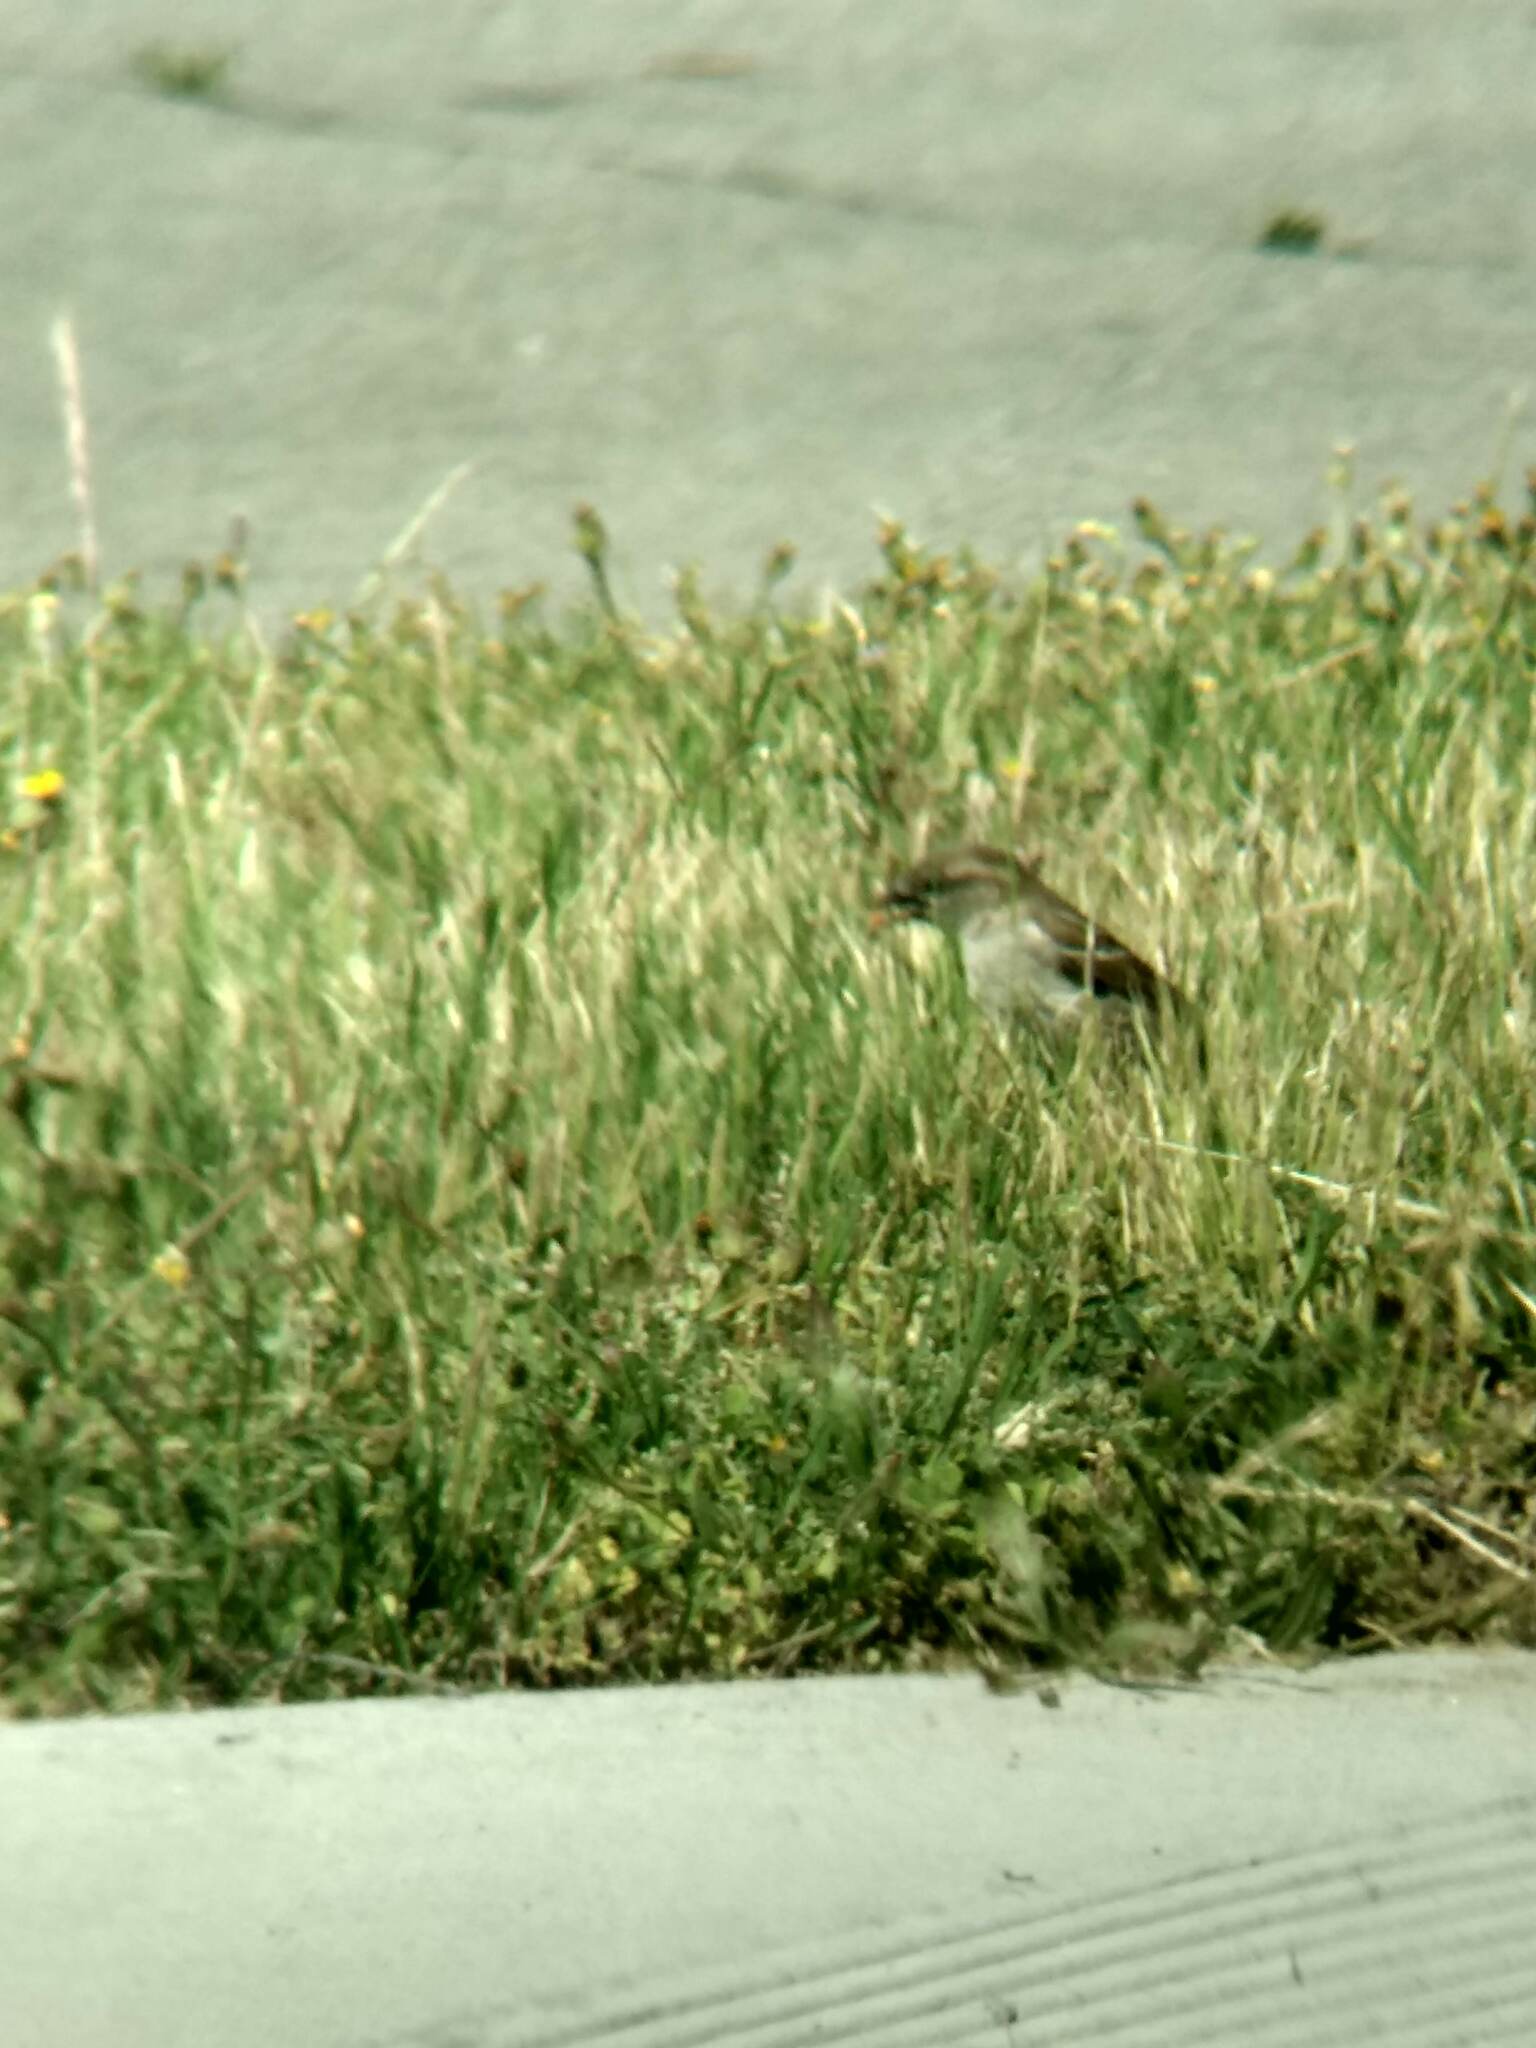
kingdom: Animalia
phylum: Chordata
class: Aves
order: Passeriformes
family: Passeridae
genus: Passer
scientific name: Passer domesticus
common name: House sparrow
